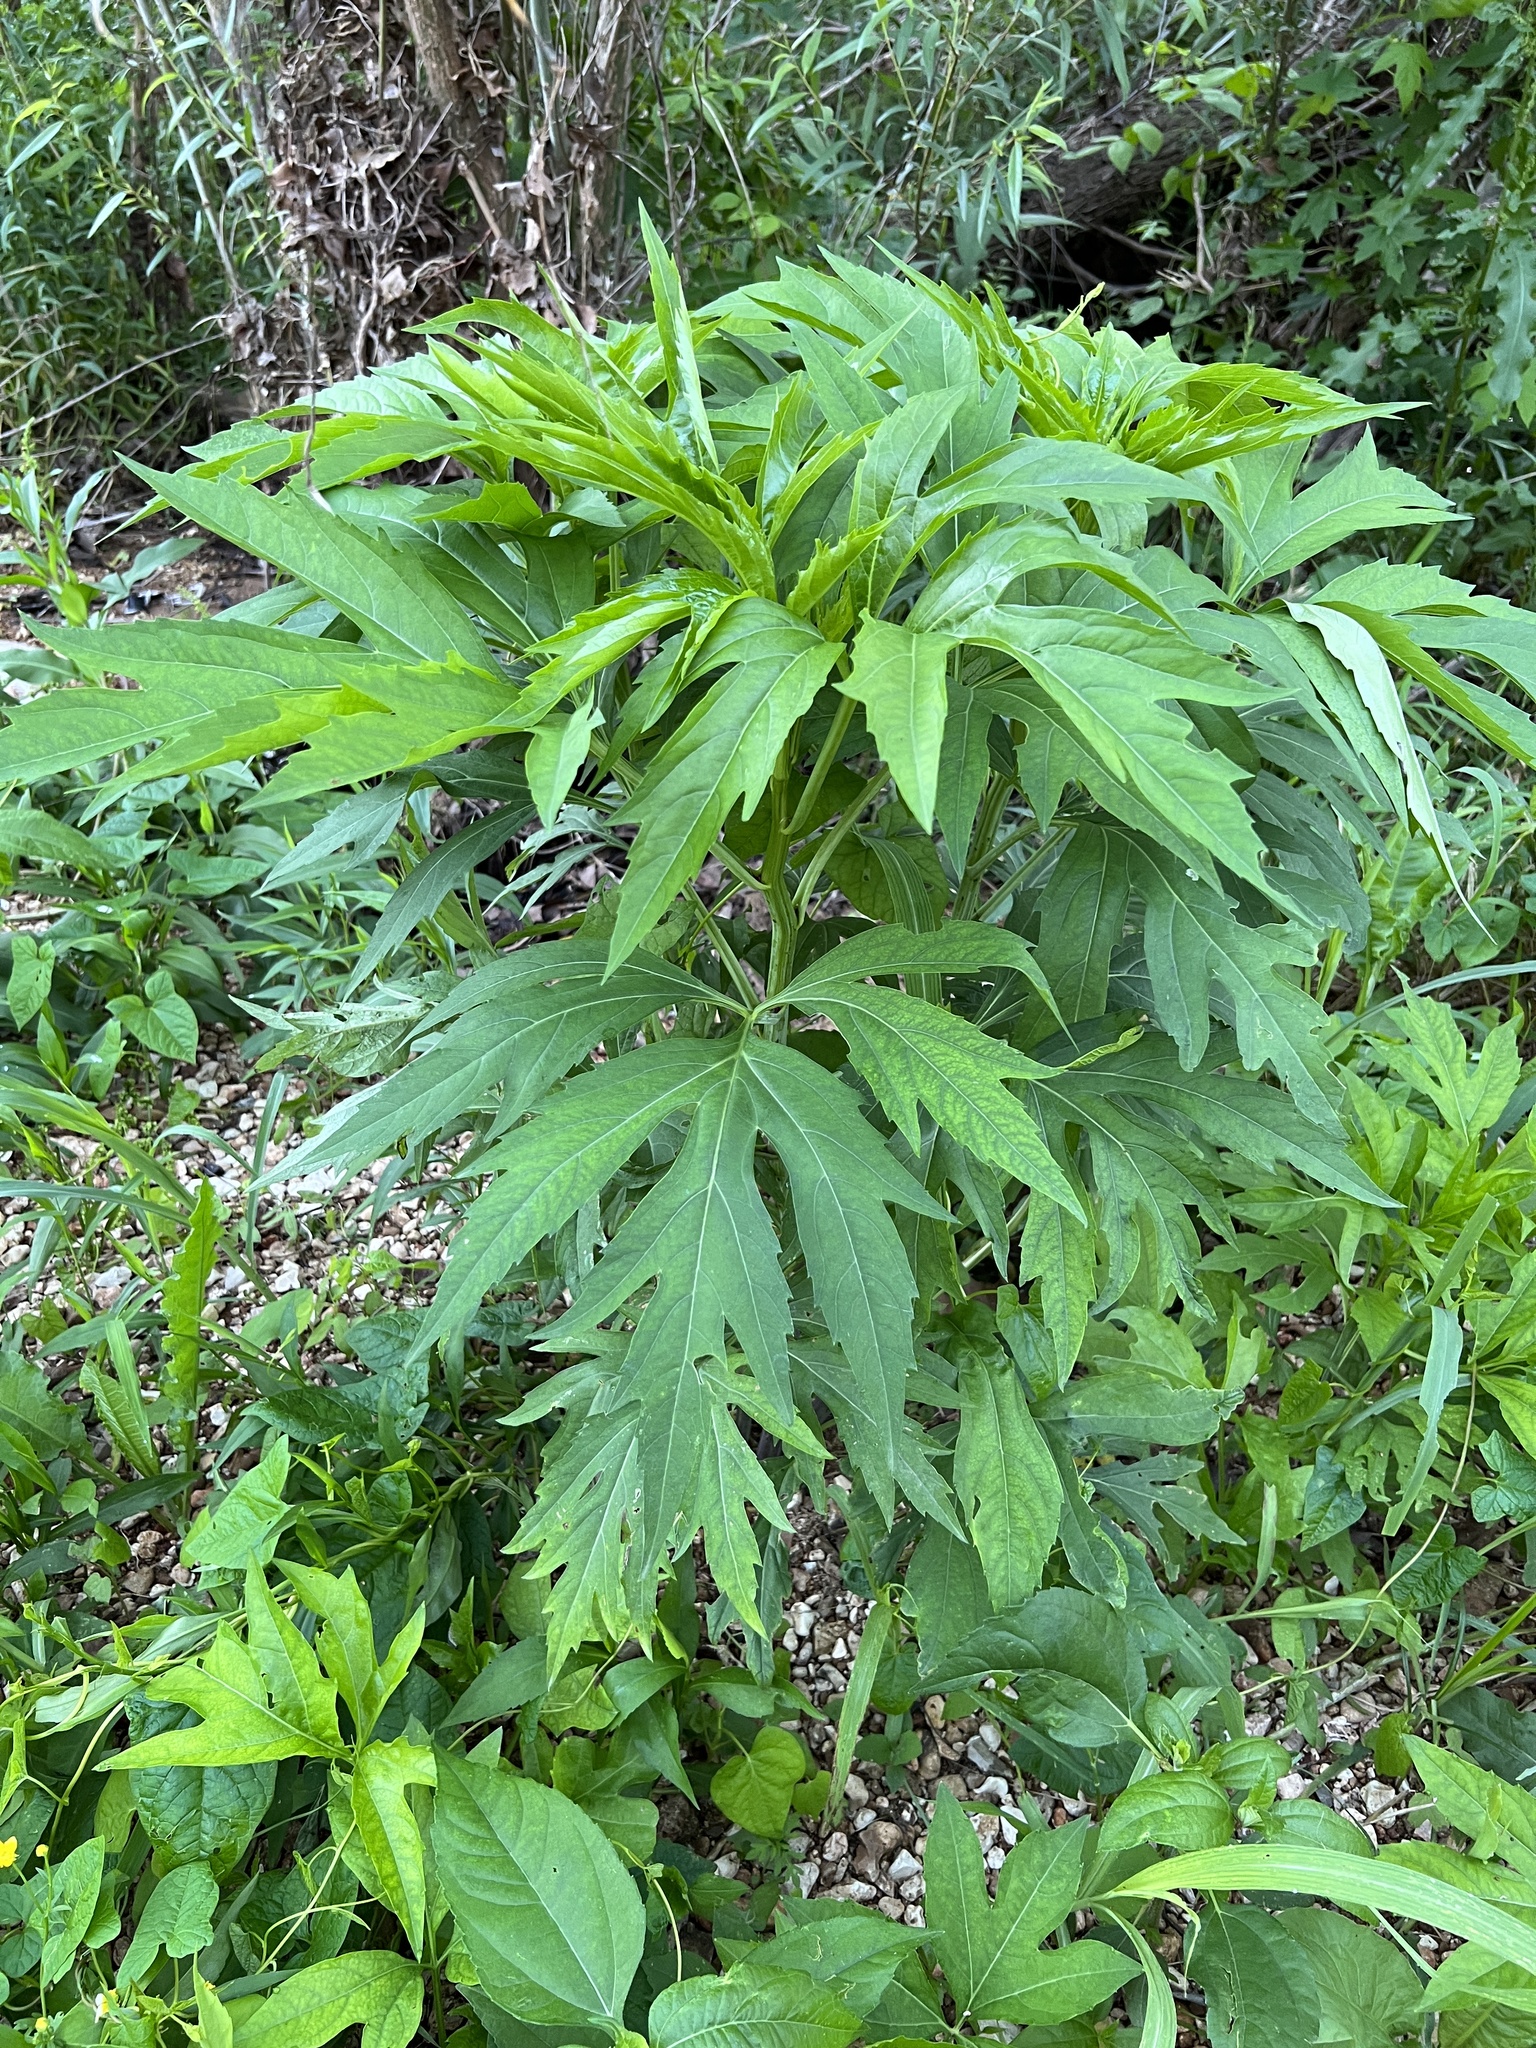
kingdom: Plantae
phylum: Tracheophyta
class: Magnoliopsida
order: Asterales
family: Asteraceae
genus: Rudbeckia
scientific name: Rudbeckia laciniata
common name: Coneflower
